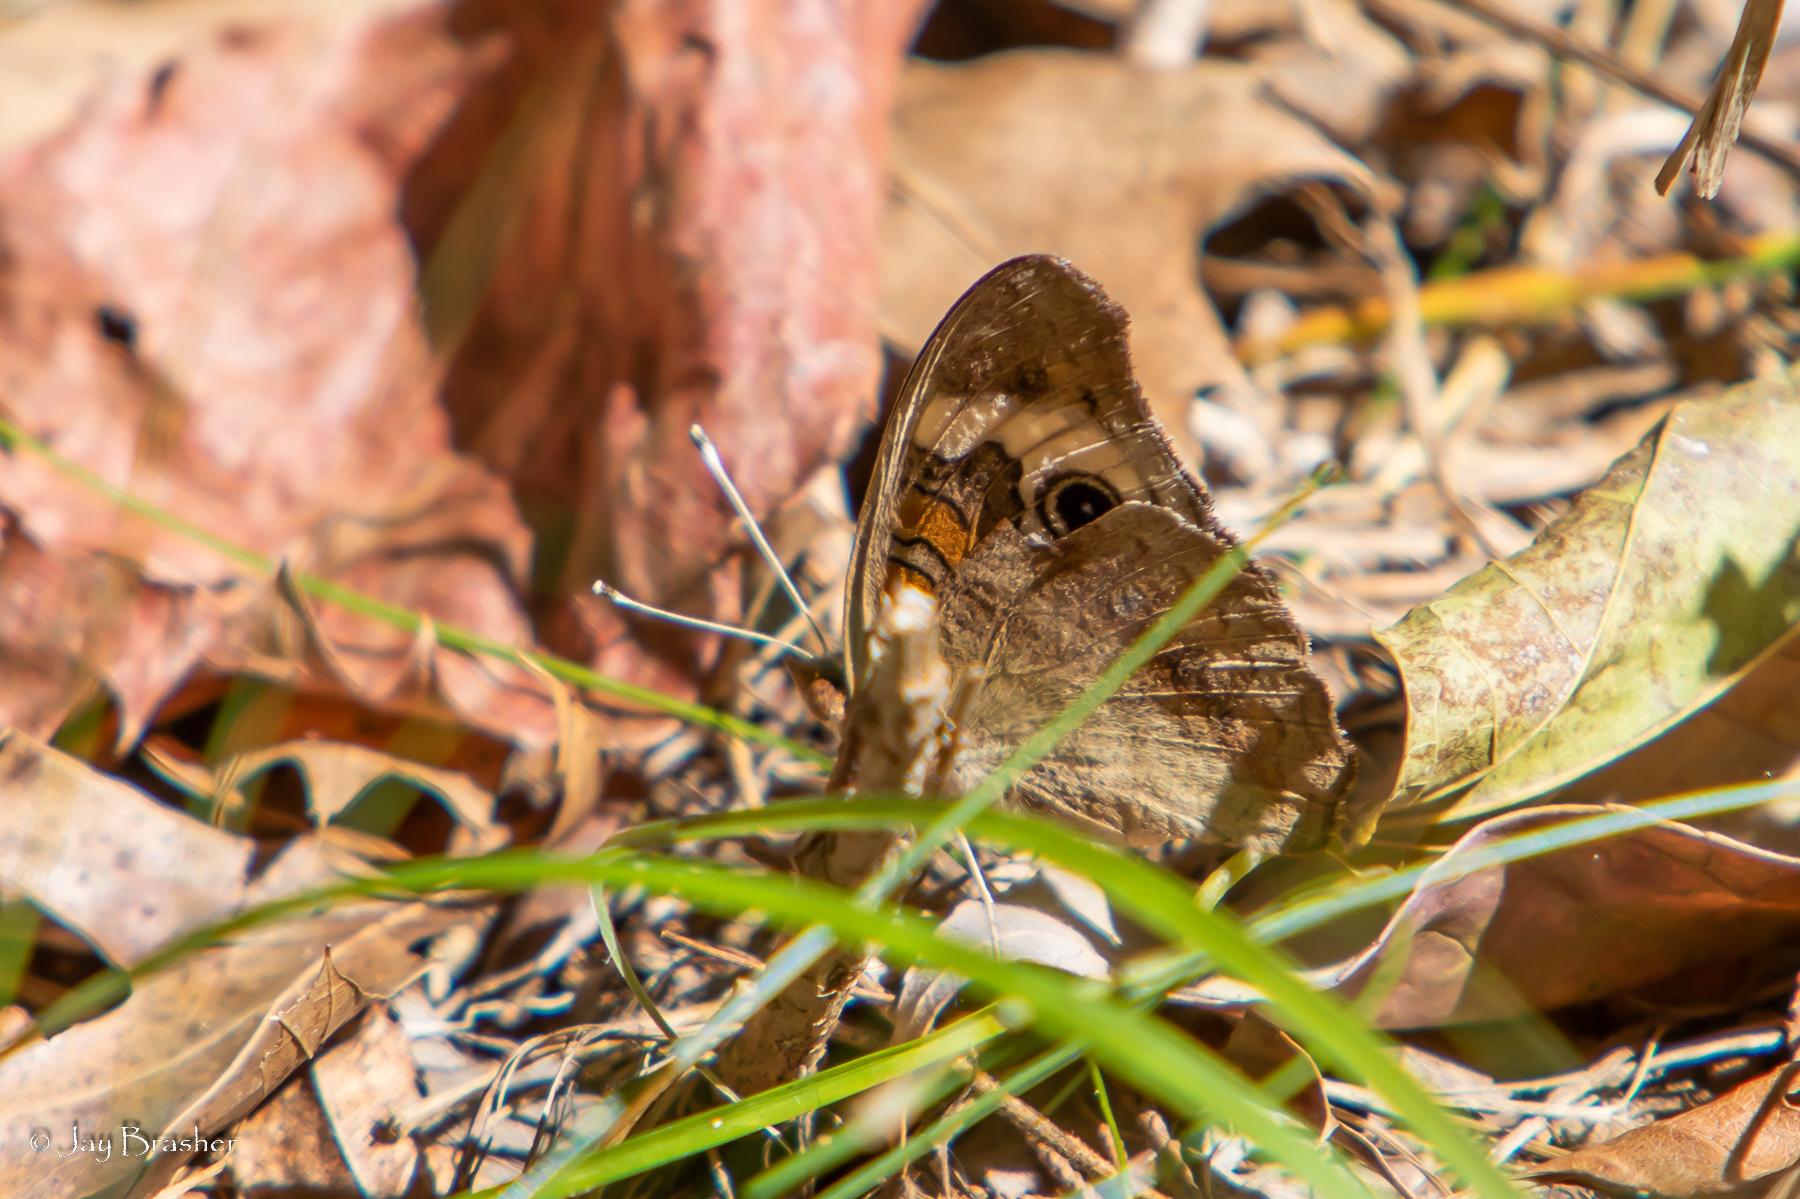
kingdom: Animalia
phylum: Arthropoda
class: Insecta
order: Lepidoptera
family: Nymphalidae
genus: Junonia
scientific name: Junonia coenia
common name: Common buckeye
